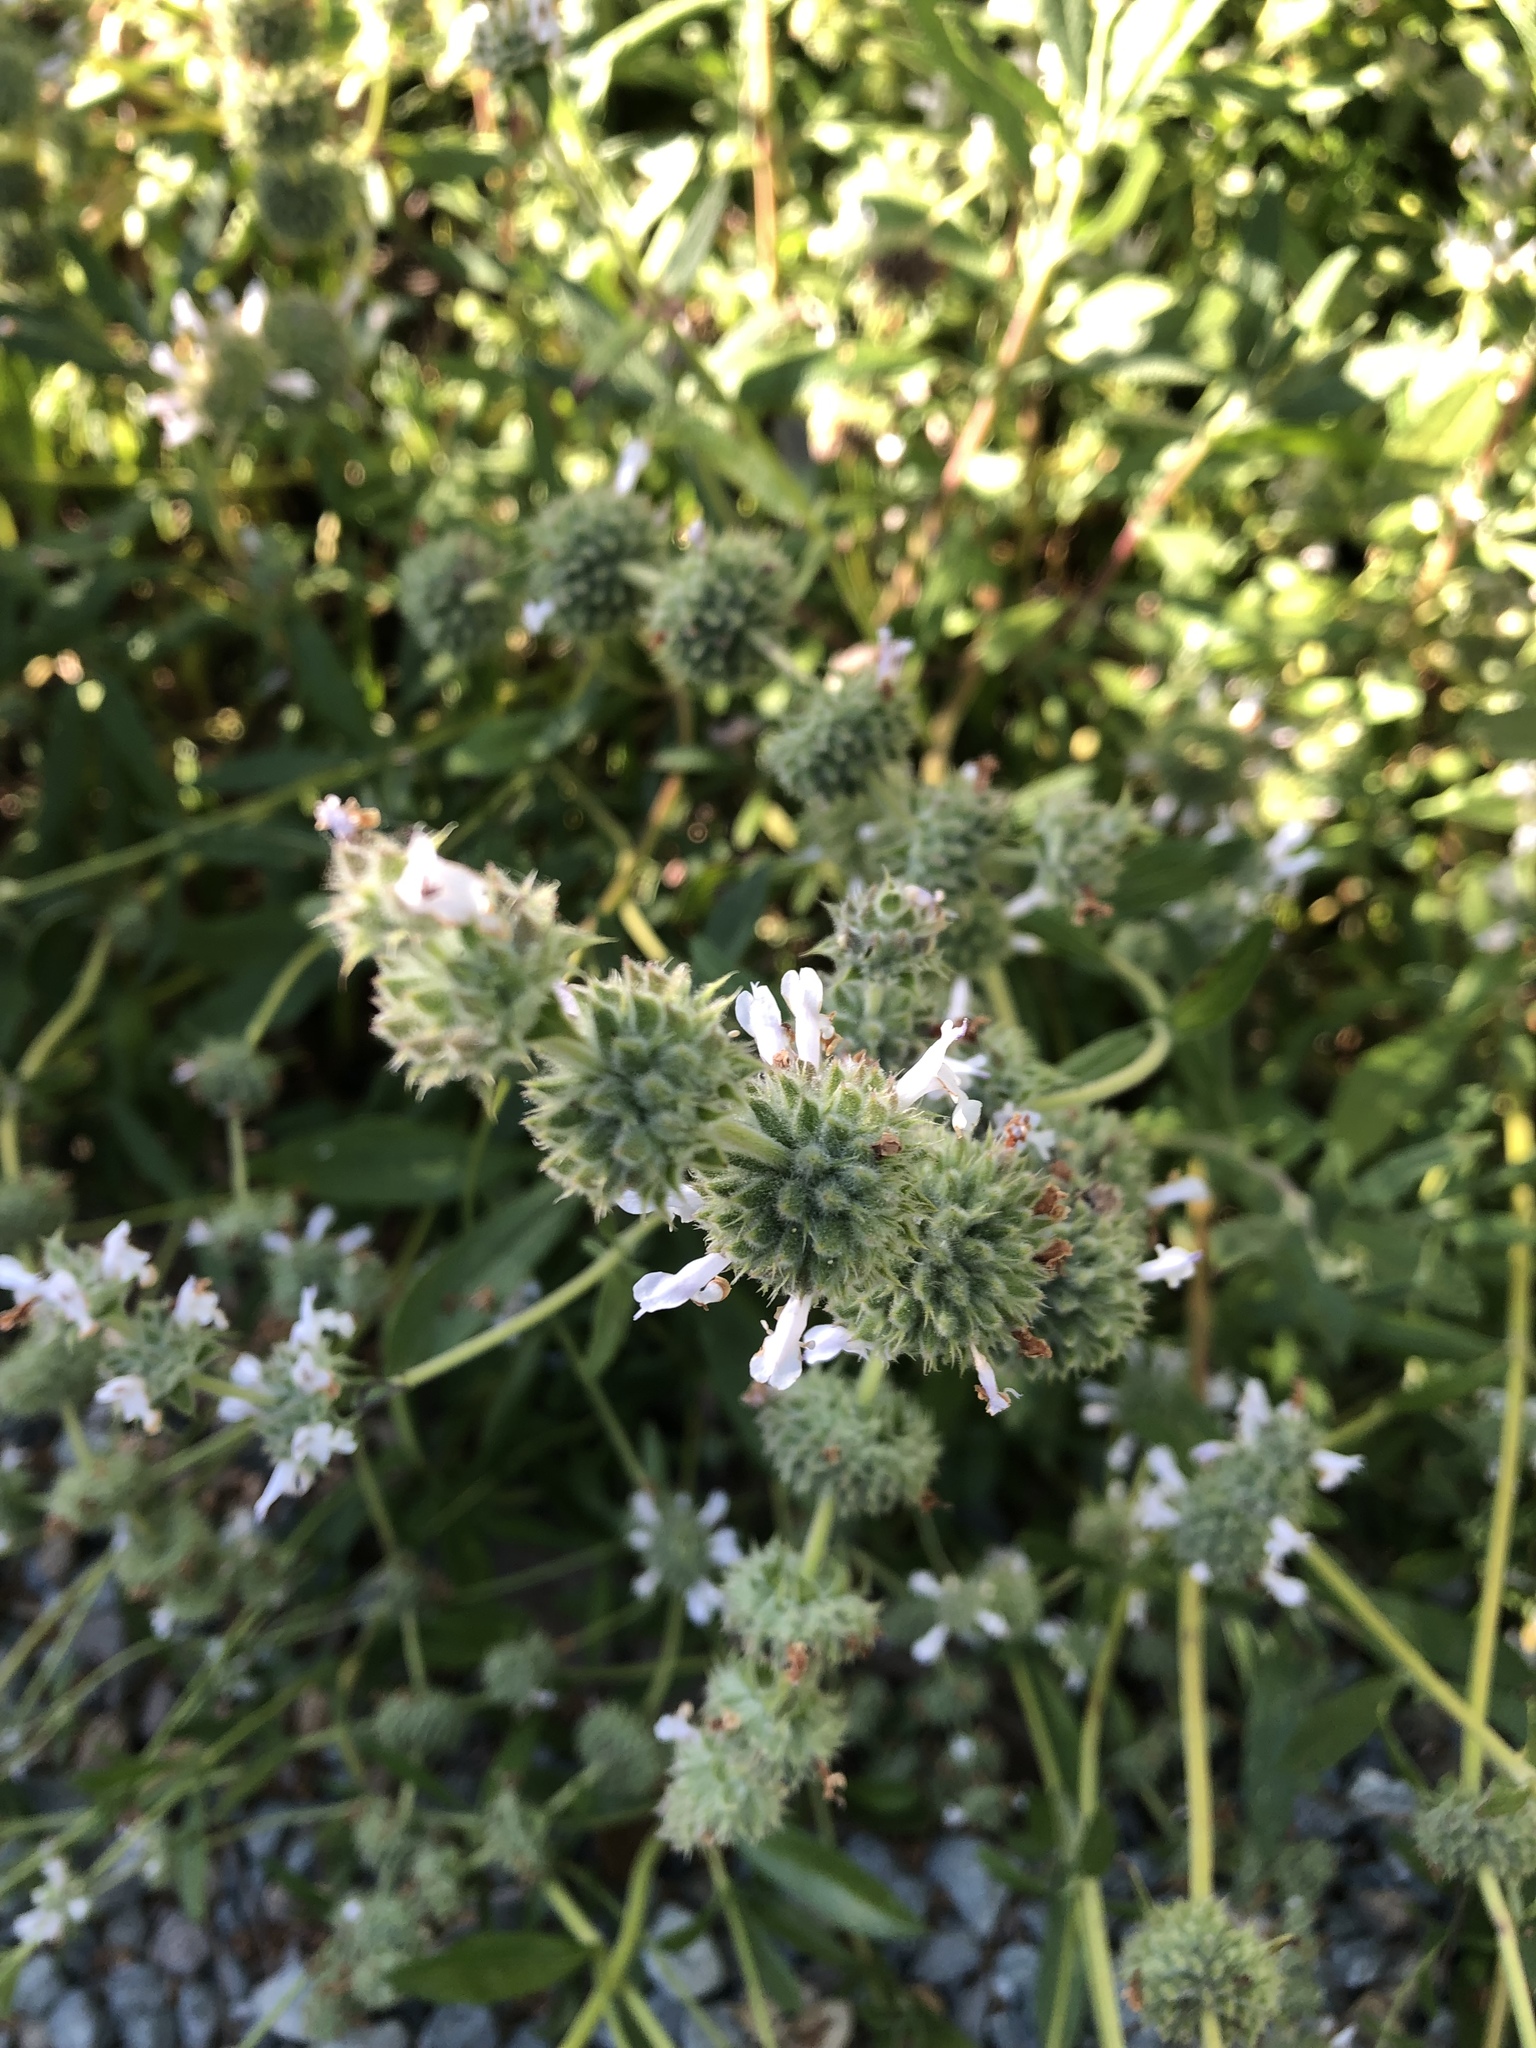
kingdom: Plantae
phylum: Tracheophyta
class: Magnoliopsida
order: Lamiales
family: Lamiaceae
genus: Salvia
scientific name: Salvia mellifera
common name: Black sage
